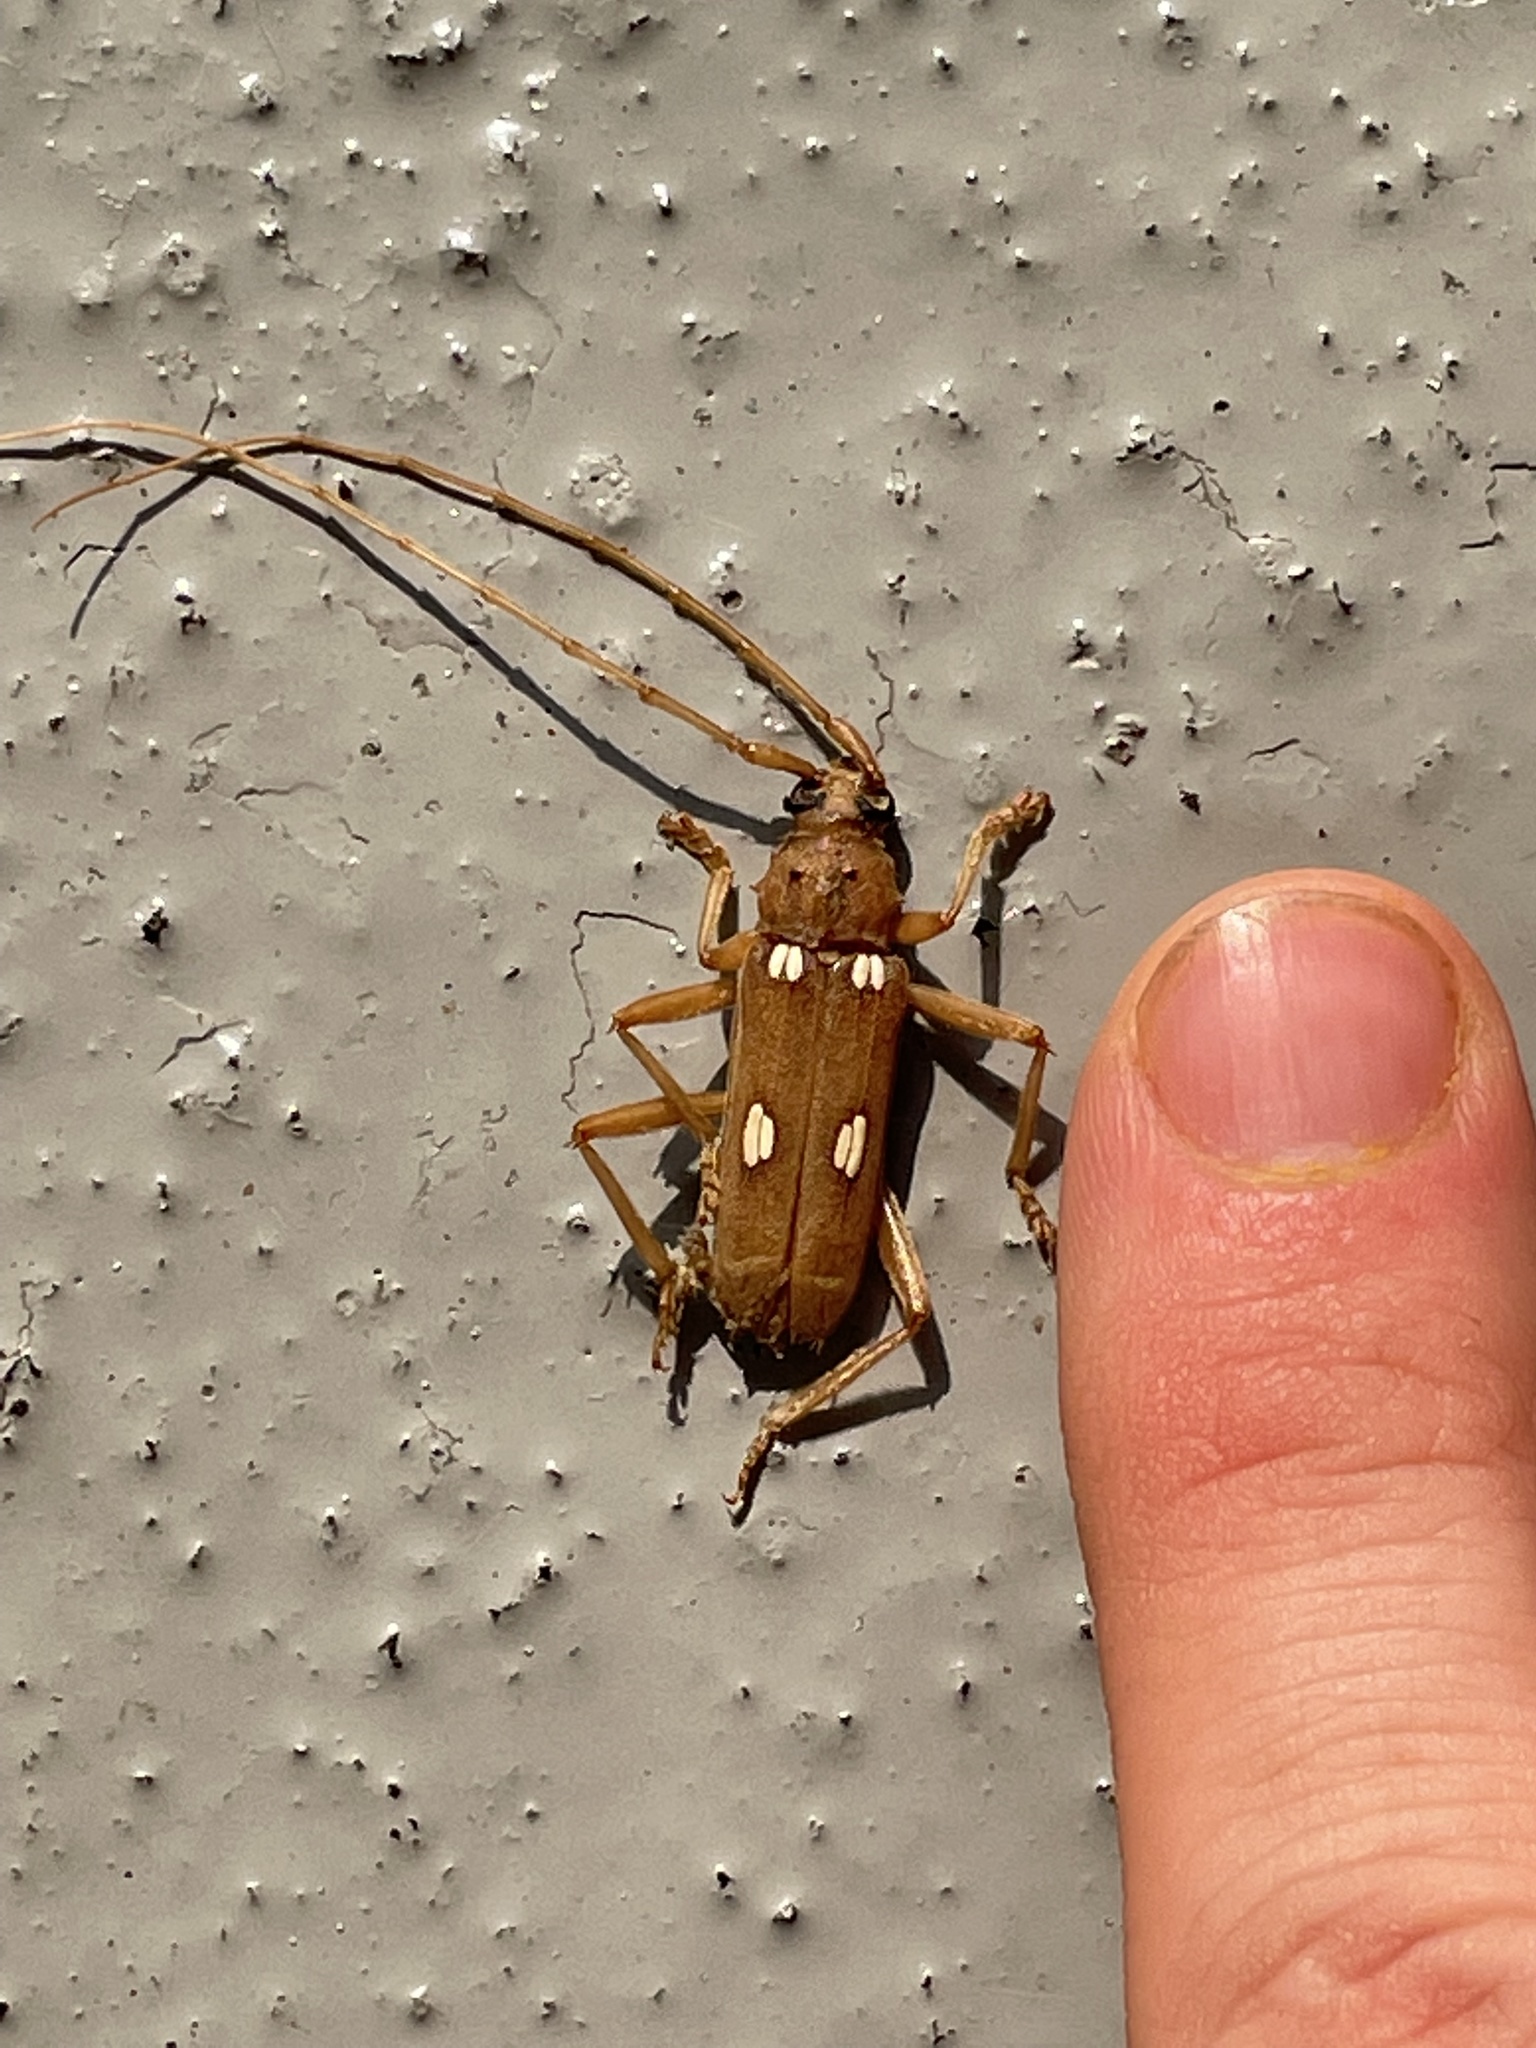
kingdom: Animalia
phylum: Arthropoda
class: Insecta
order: Coleoptera
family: Cerambycidae
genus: Eburia
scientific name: Eburia quadrigeminata
